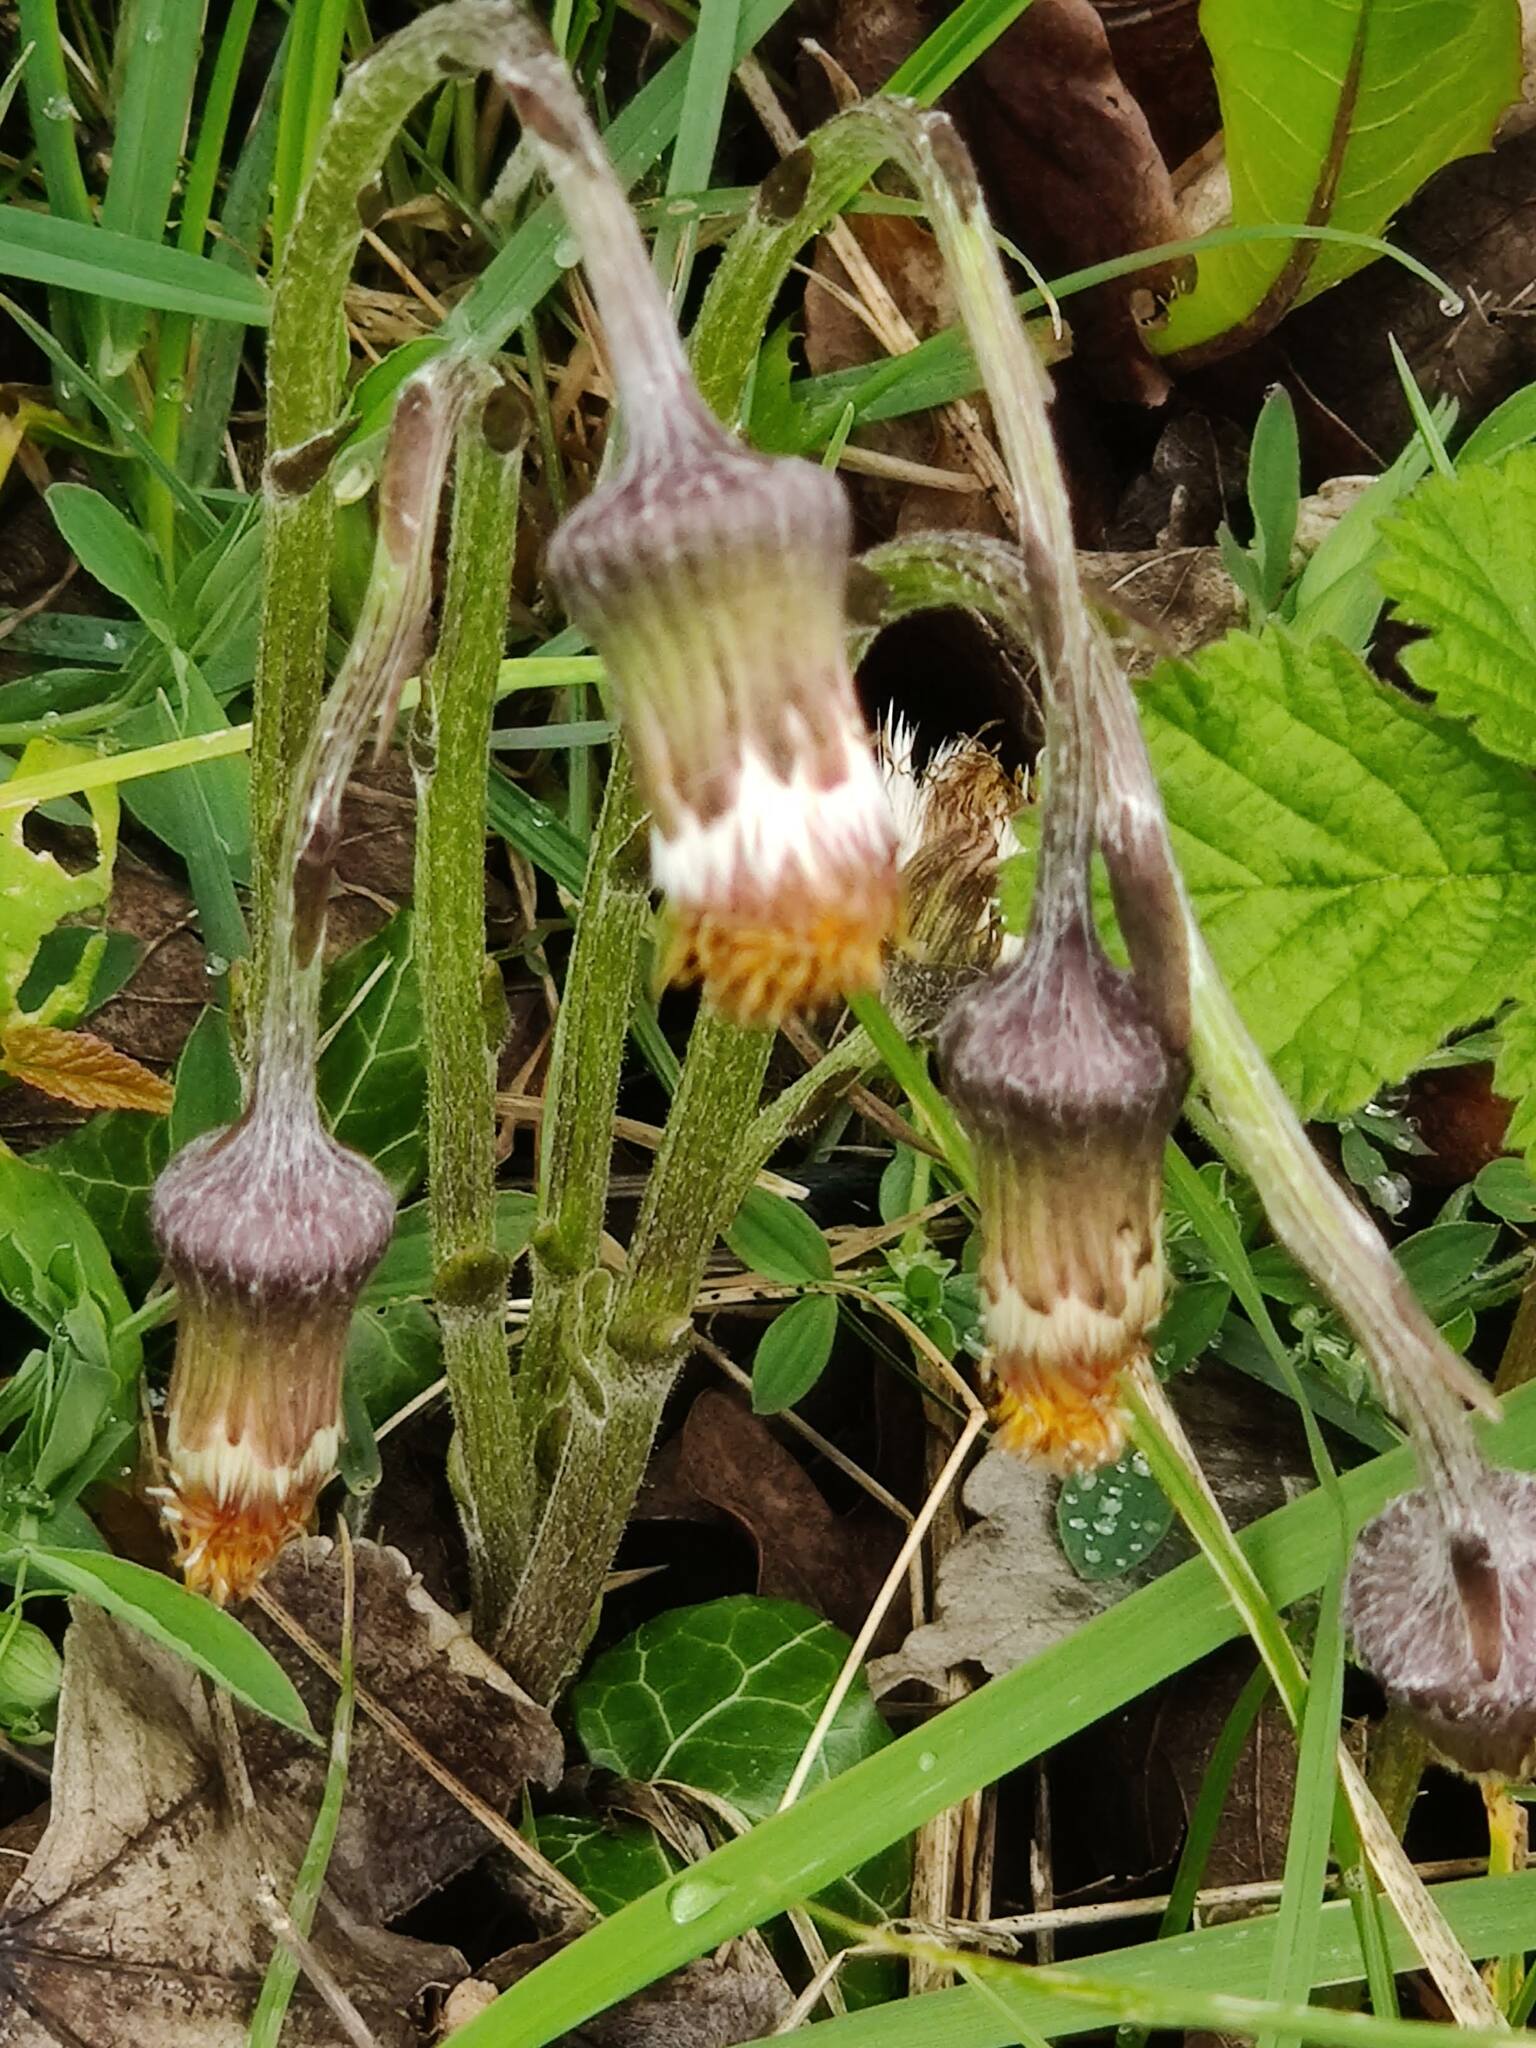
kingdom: Plantae
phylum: Tracheophyta
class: Magnoliopsida
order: Asterales
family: Asteraceae
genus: Tussilago
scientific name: Tussilago farfara
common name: Coltsfoot
